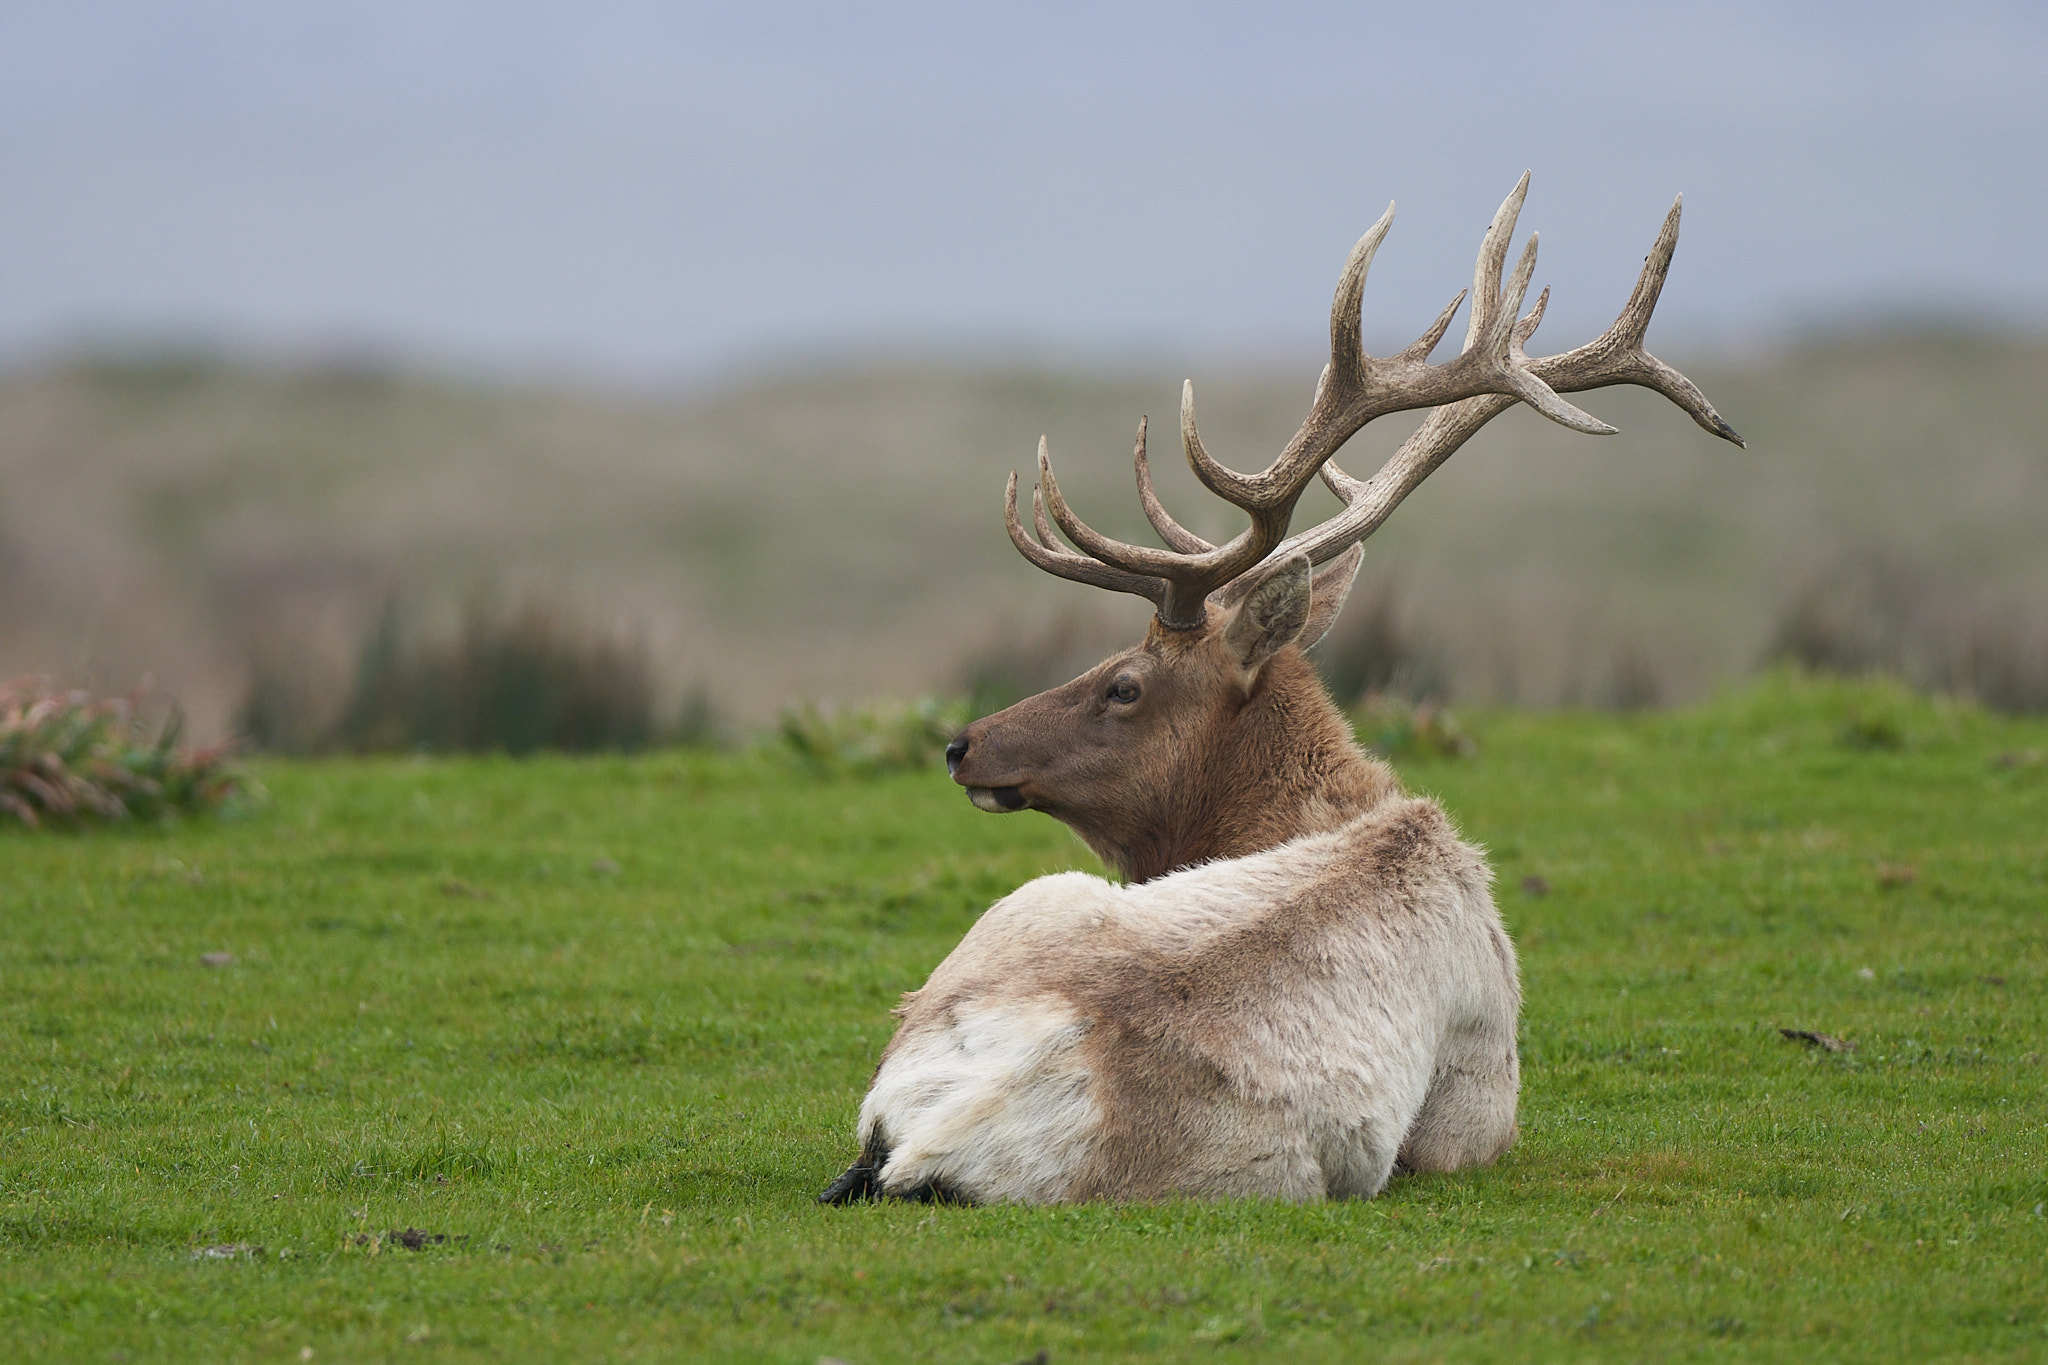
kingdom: Animalia
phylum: Chordata
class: Mammalia
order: Artiodactyla
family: Cervidae
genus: Cervus
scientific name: Cervus elaphus
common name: Red deer
